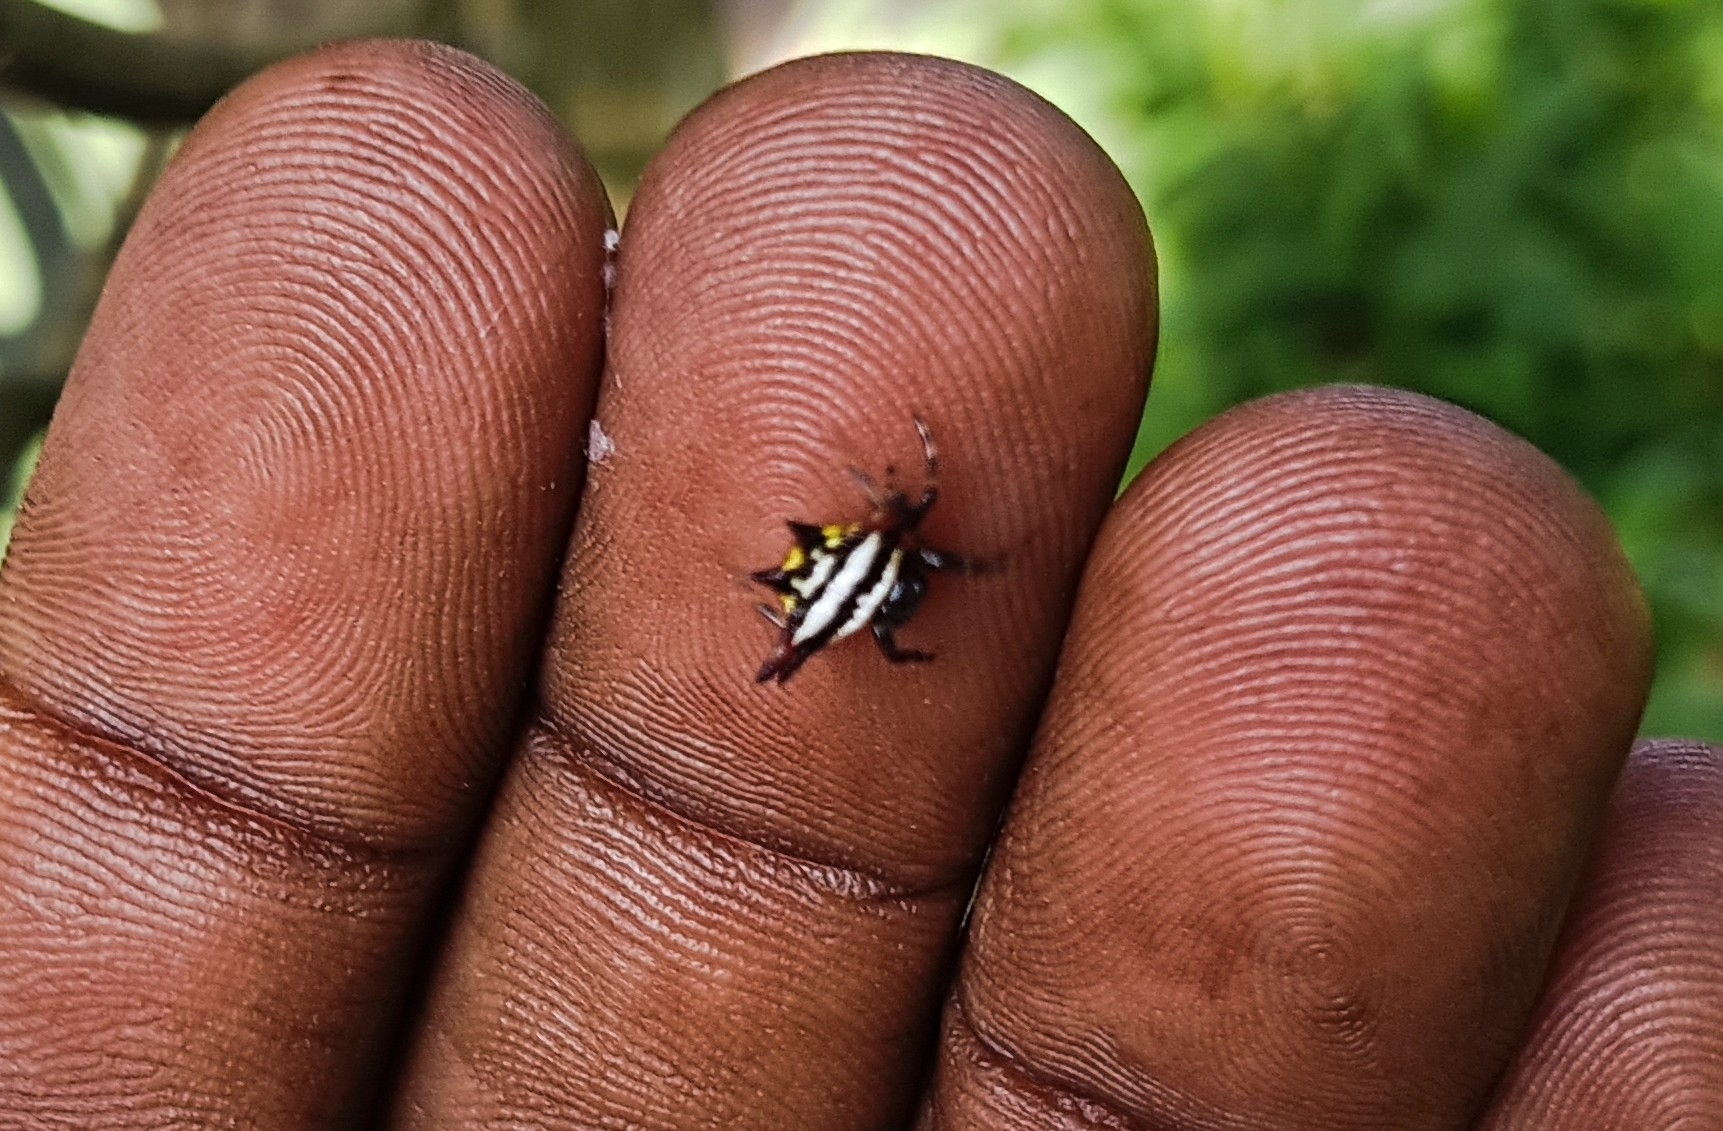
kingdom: Animalia
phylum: Arthropoda
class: Arachnida
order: Araneae
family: Araneidae
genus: Gasteracantha
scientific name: Gasteracantha geminata
